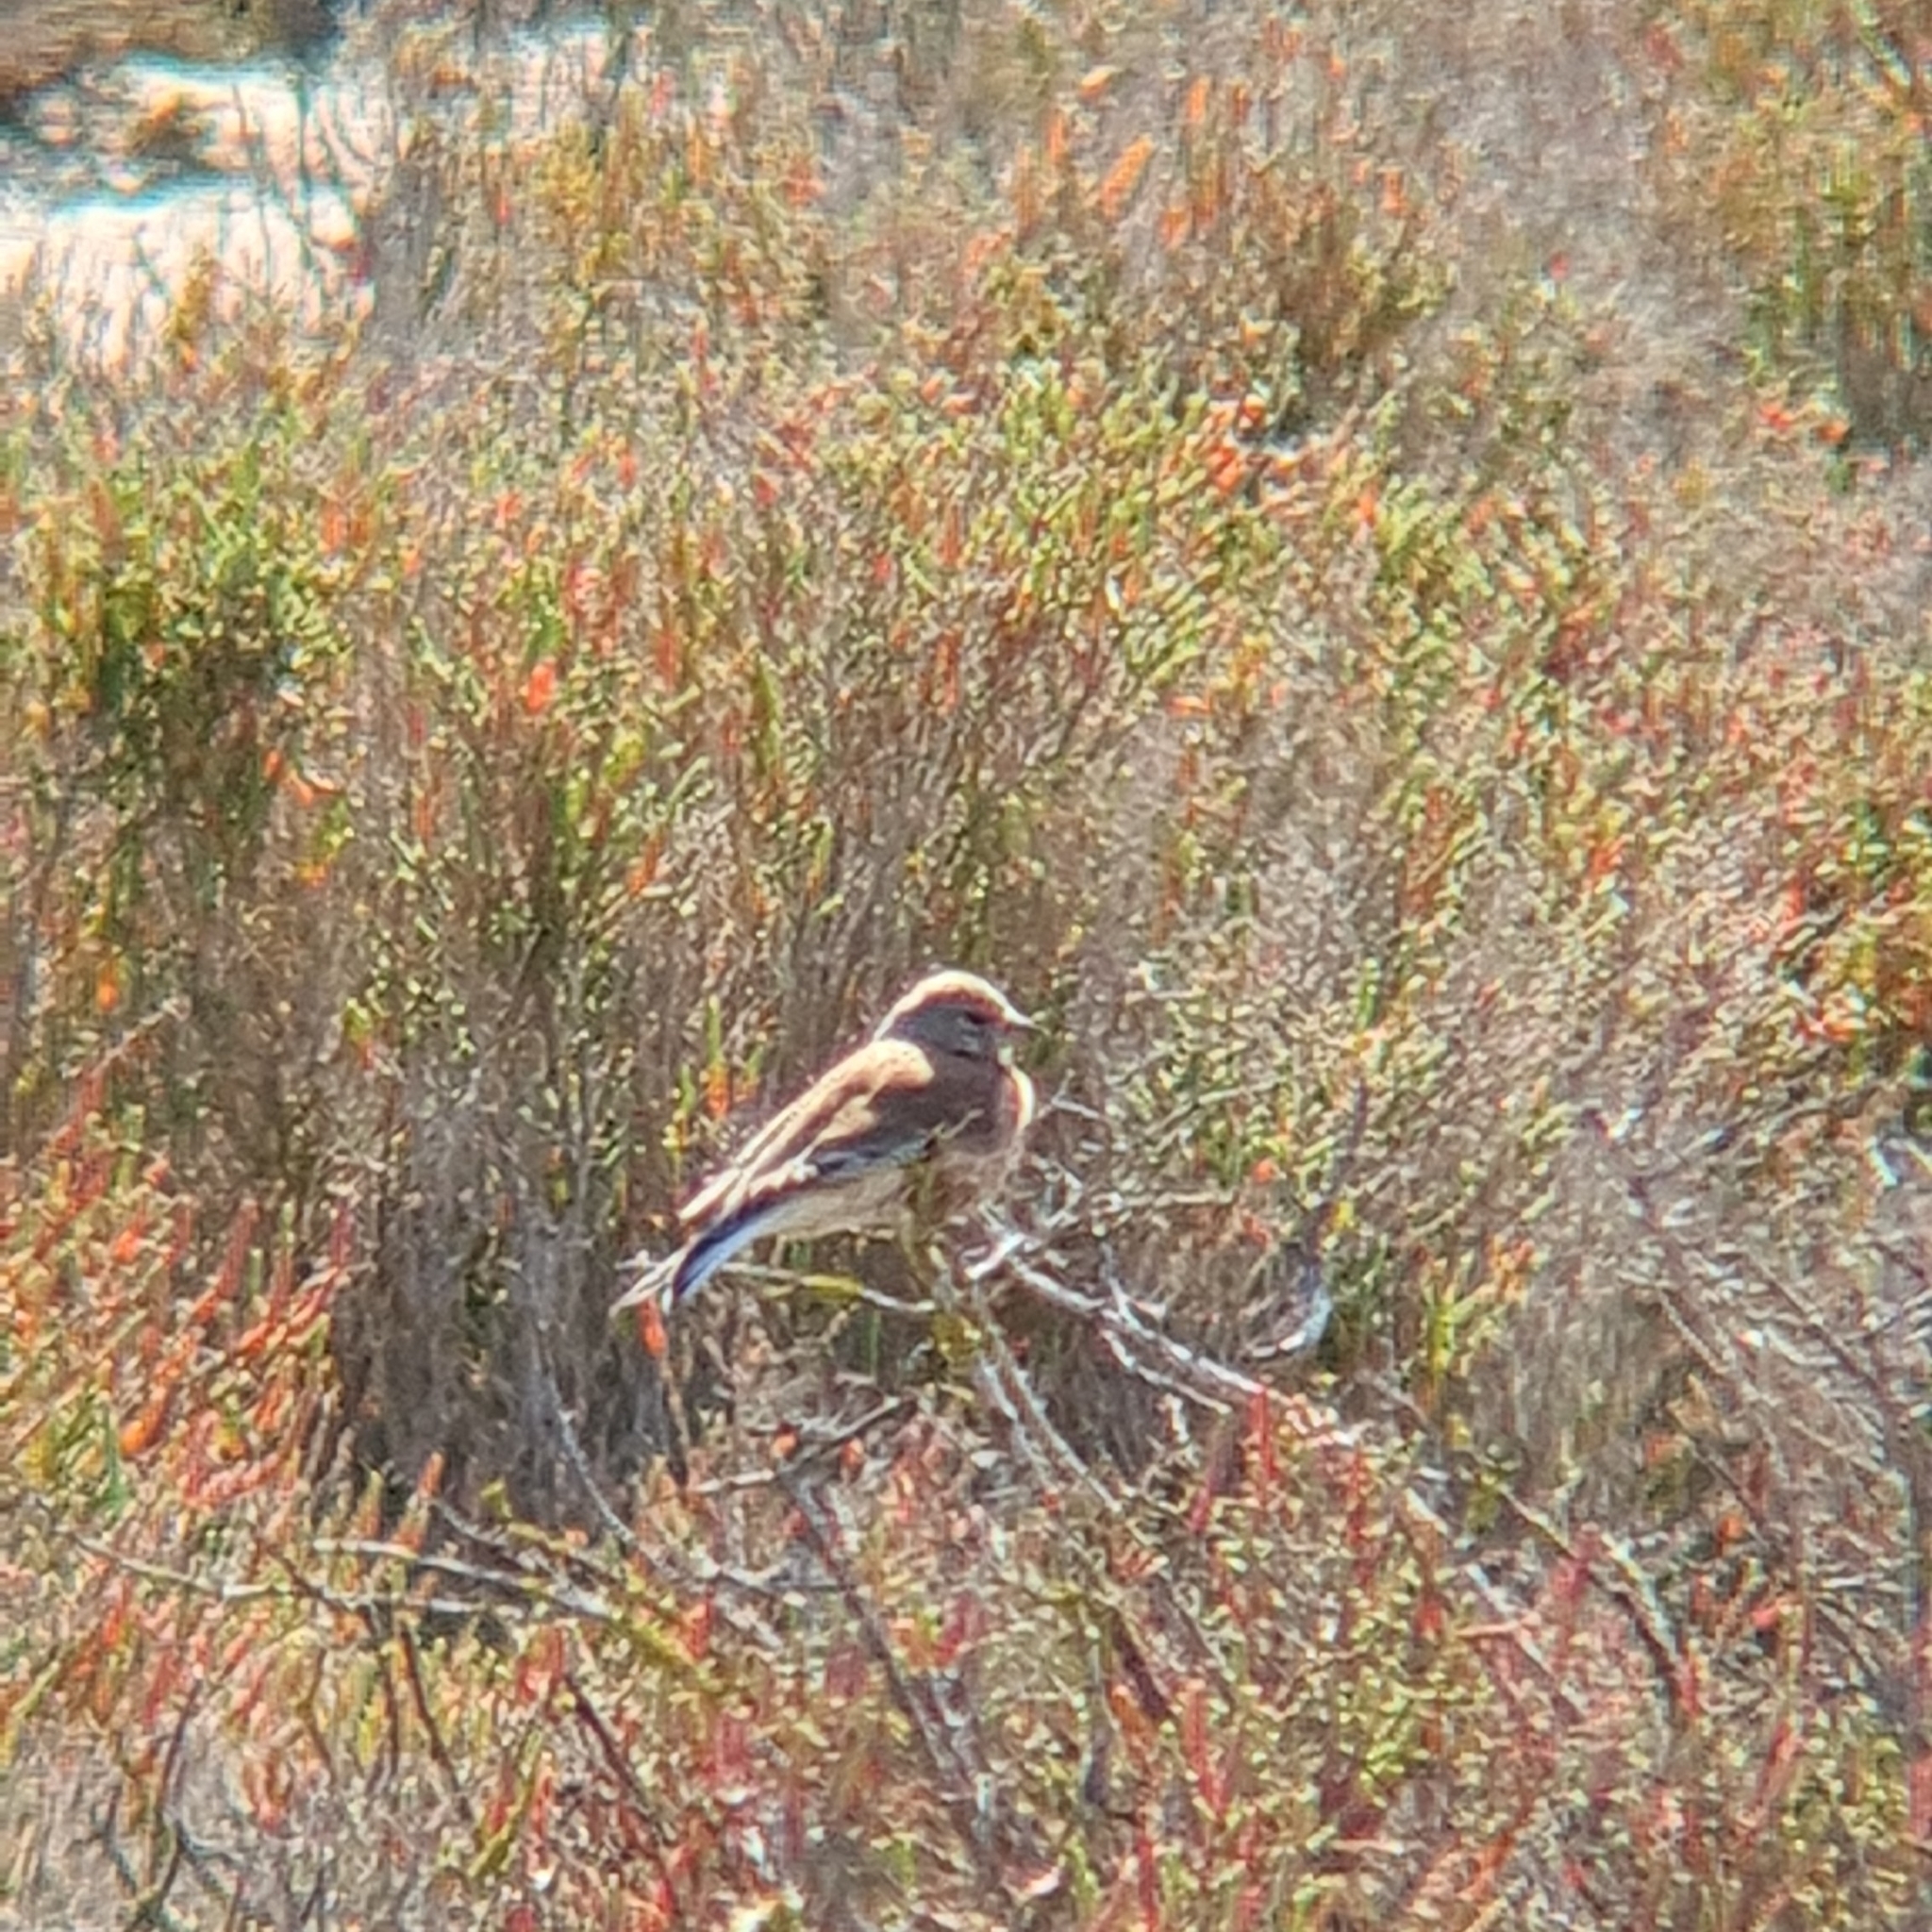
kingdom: Animalia
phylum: Chordata
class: Aves
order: Passeriformes
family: Fringillidae
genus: Linaria
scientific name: Linaria cannabina
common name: Common linnet
